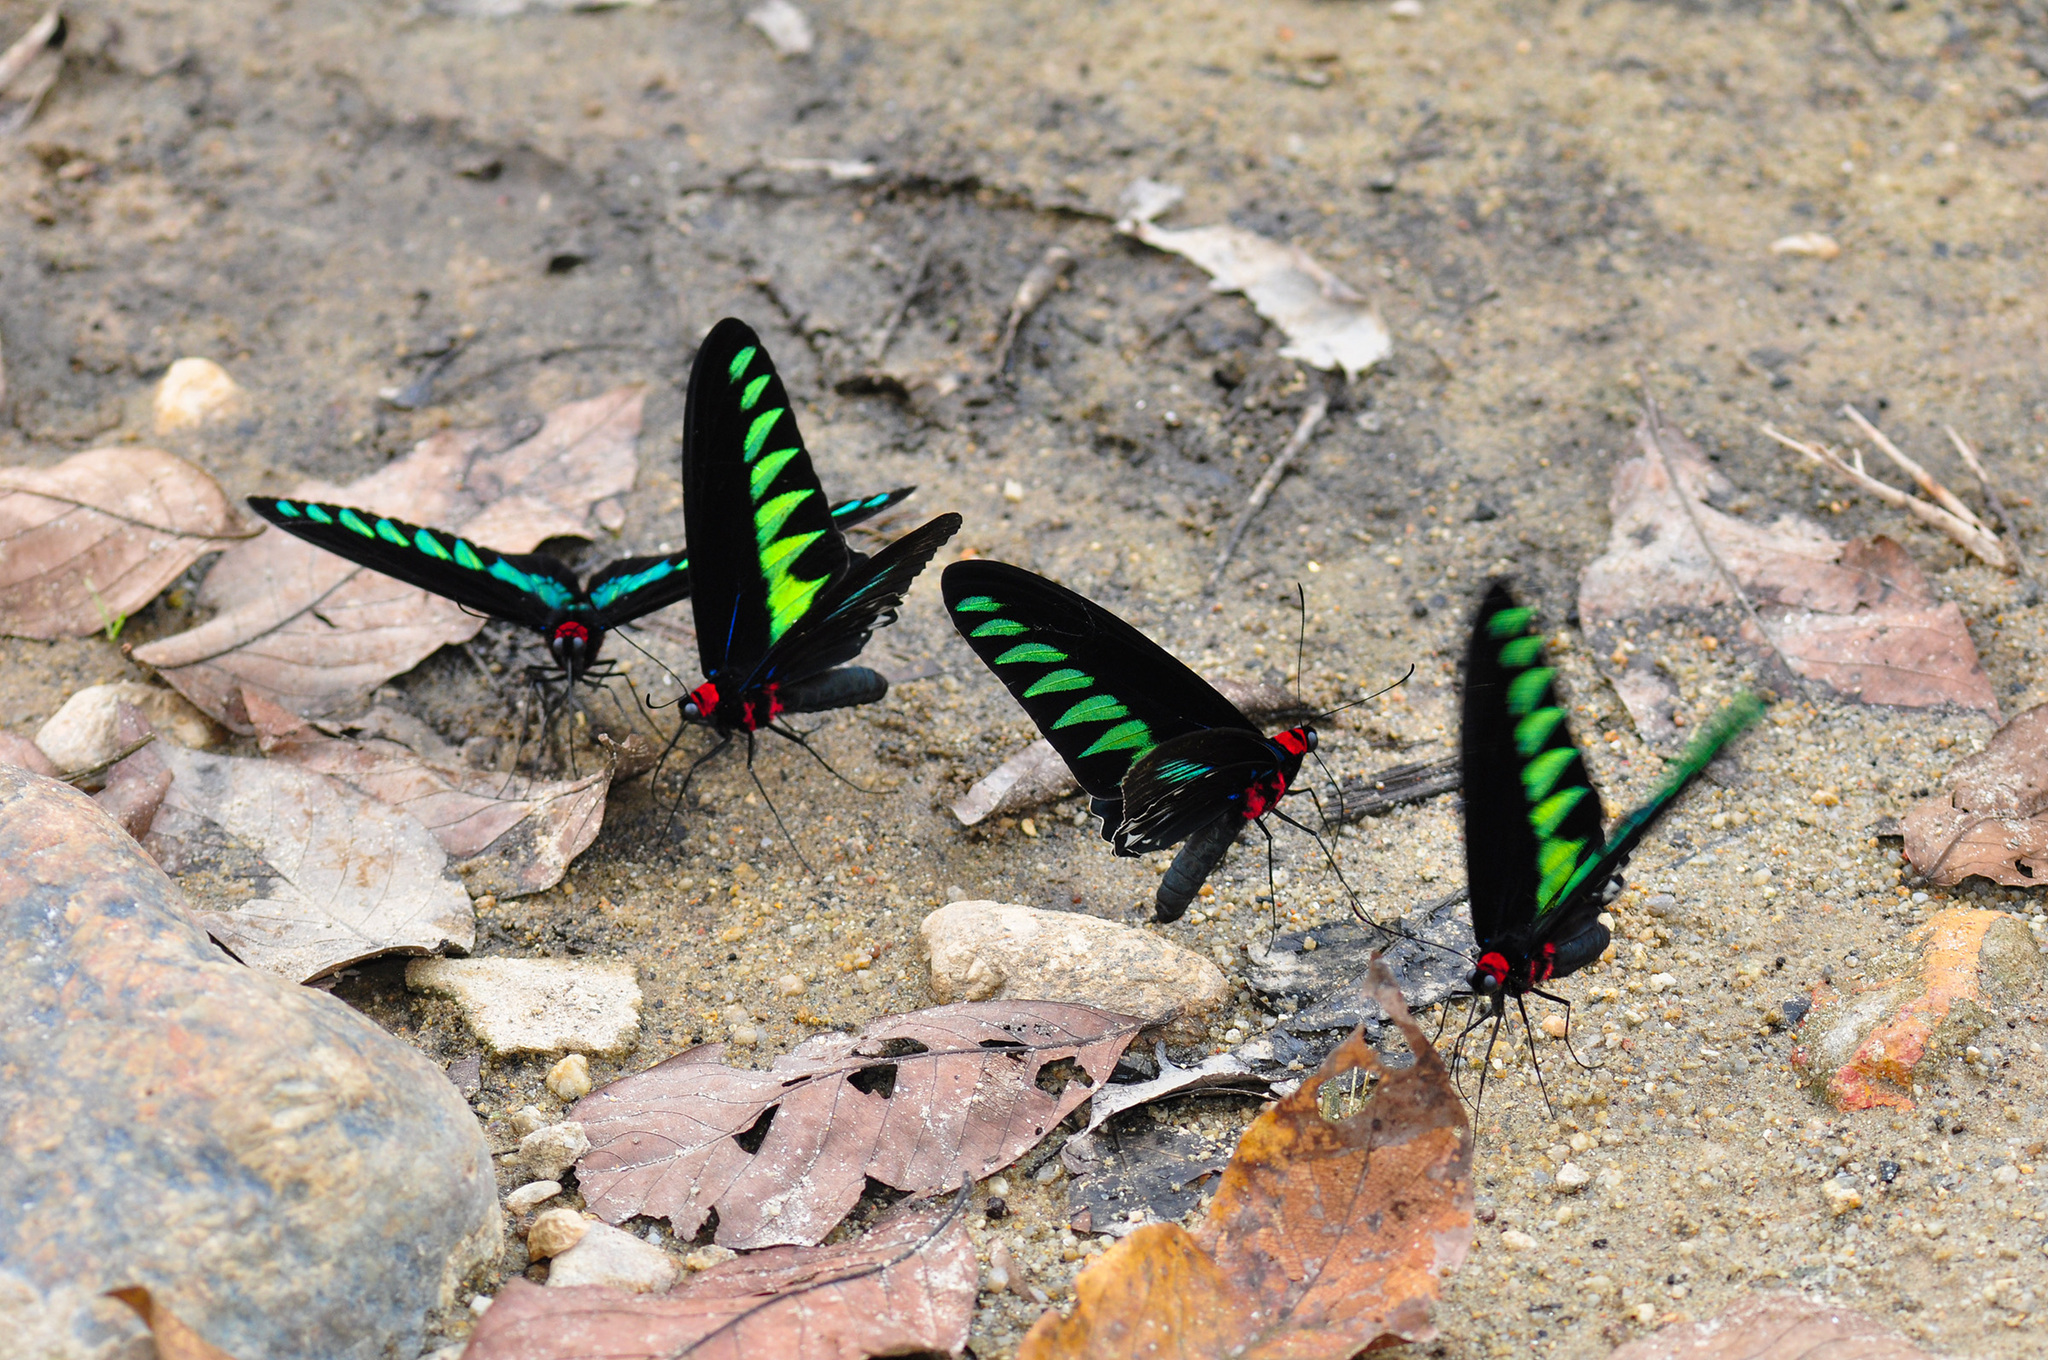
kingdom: Animalia
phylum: Arthropoda
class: Insecta
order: Lepidoptera
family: Papilionidae
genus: Trogonoptera
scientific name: Trogonoptera brookiana
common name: Raja brooke's birdwing
